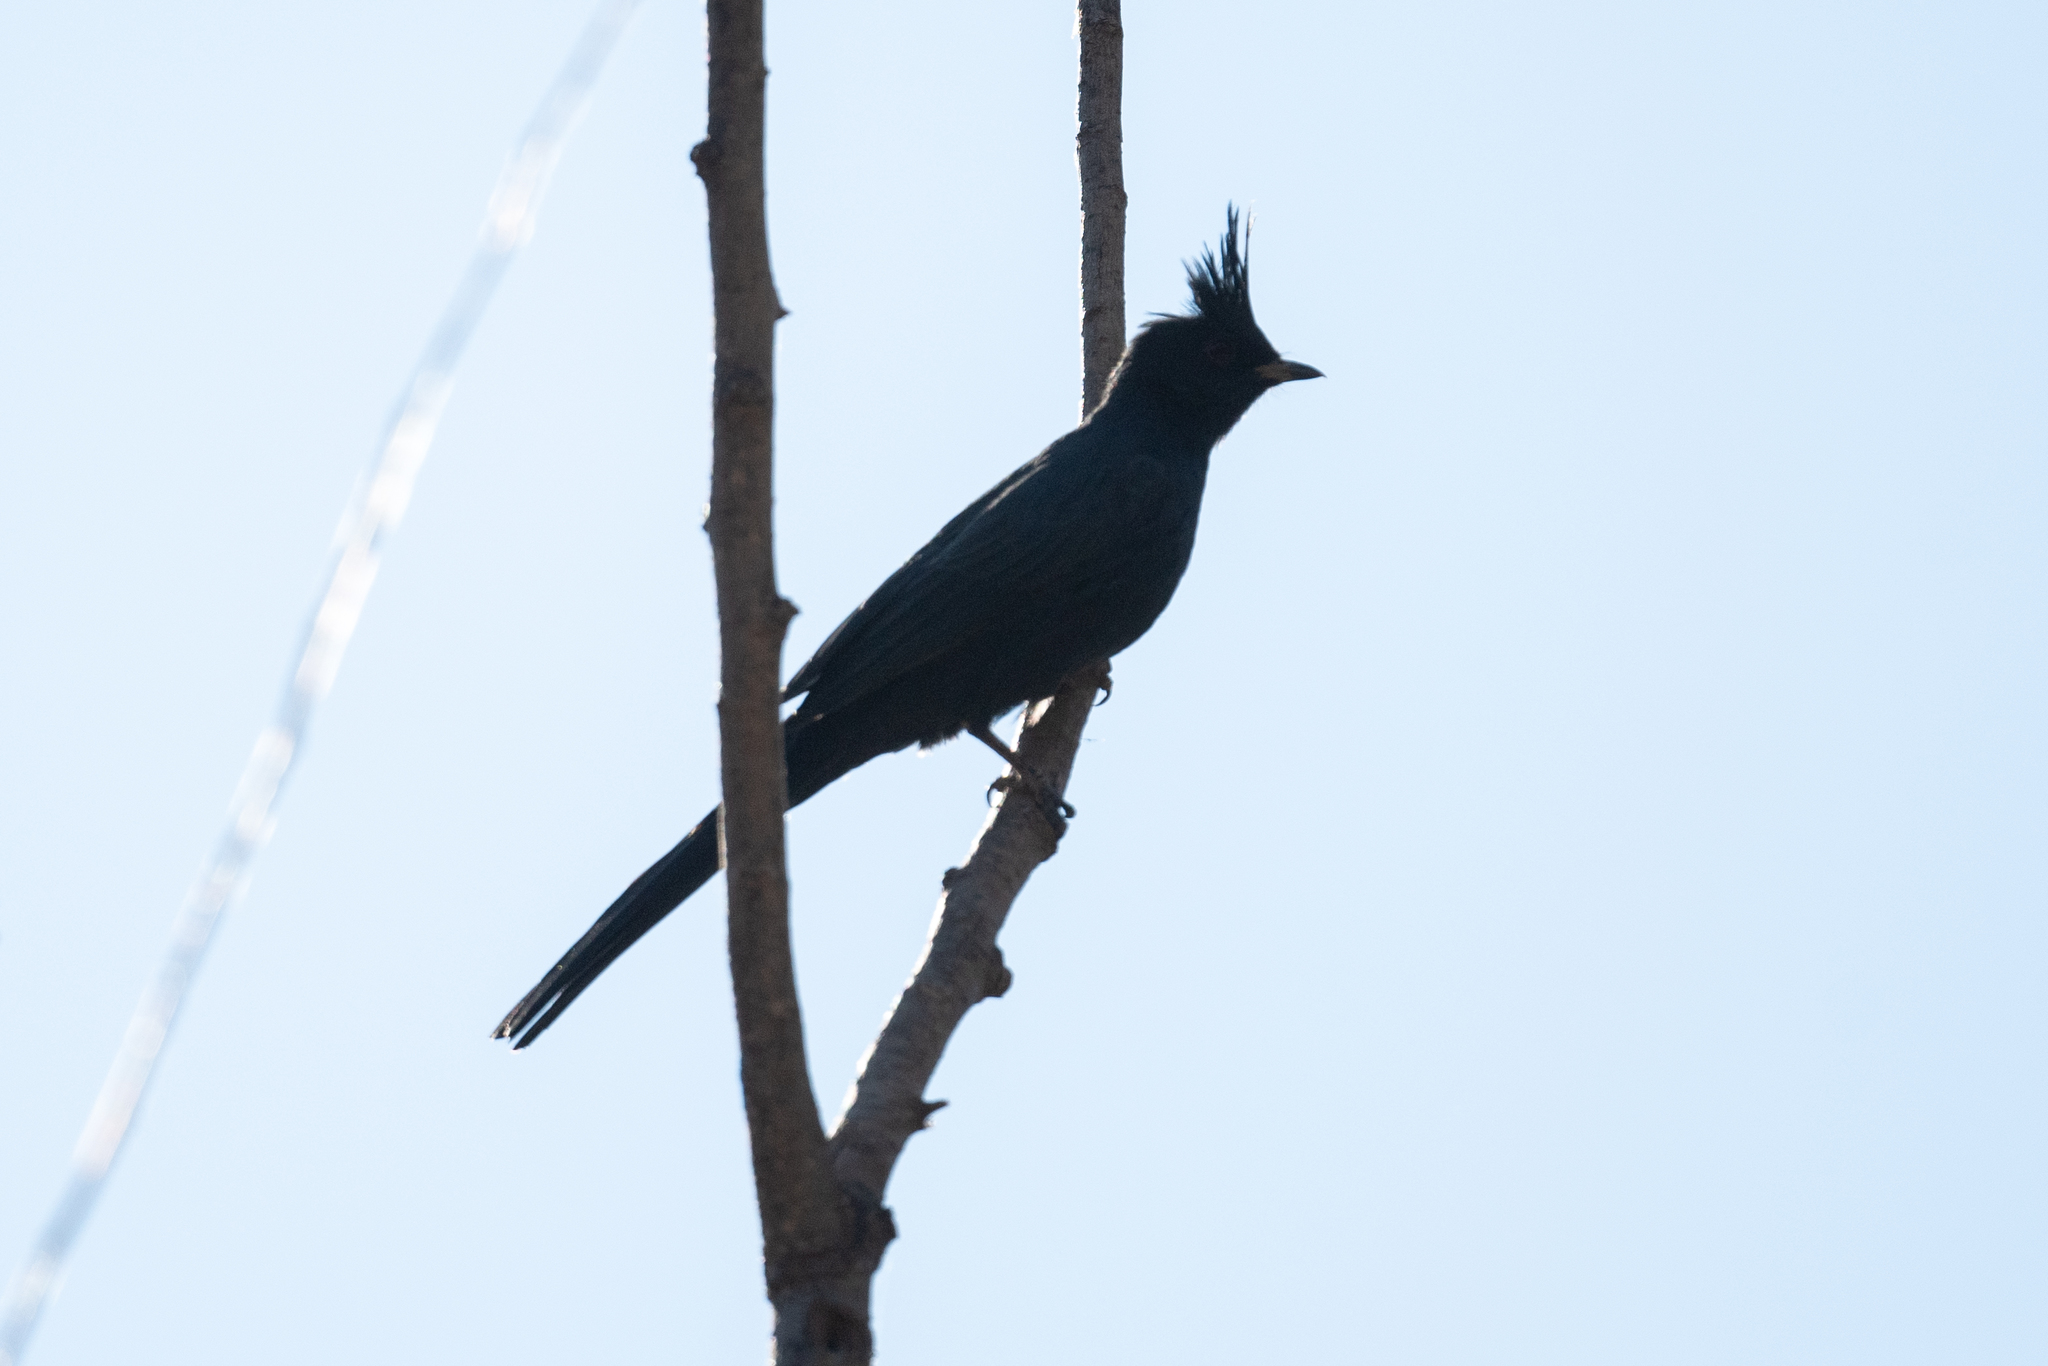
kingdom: Animalia
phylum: Chordata
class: Aves
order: Passeriformes
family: Ptilogonatidae
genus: Phainopepla
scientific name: Phainopepla nitens
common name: Phainopepla
